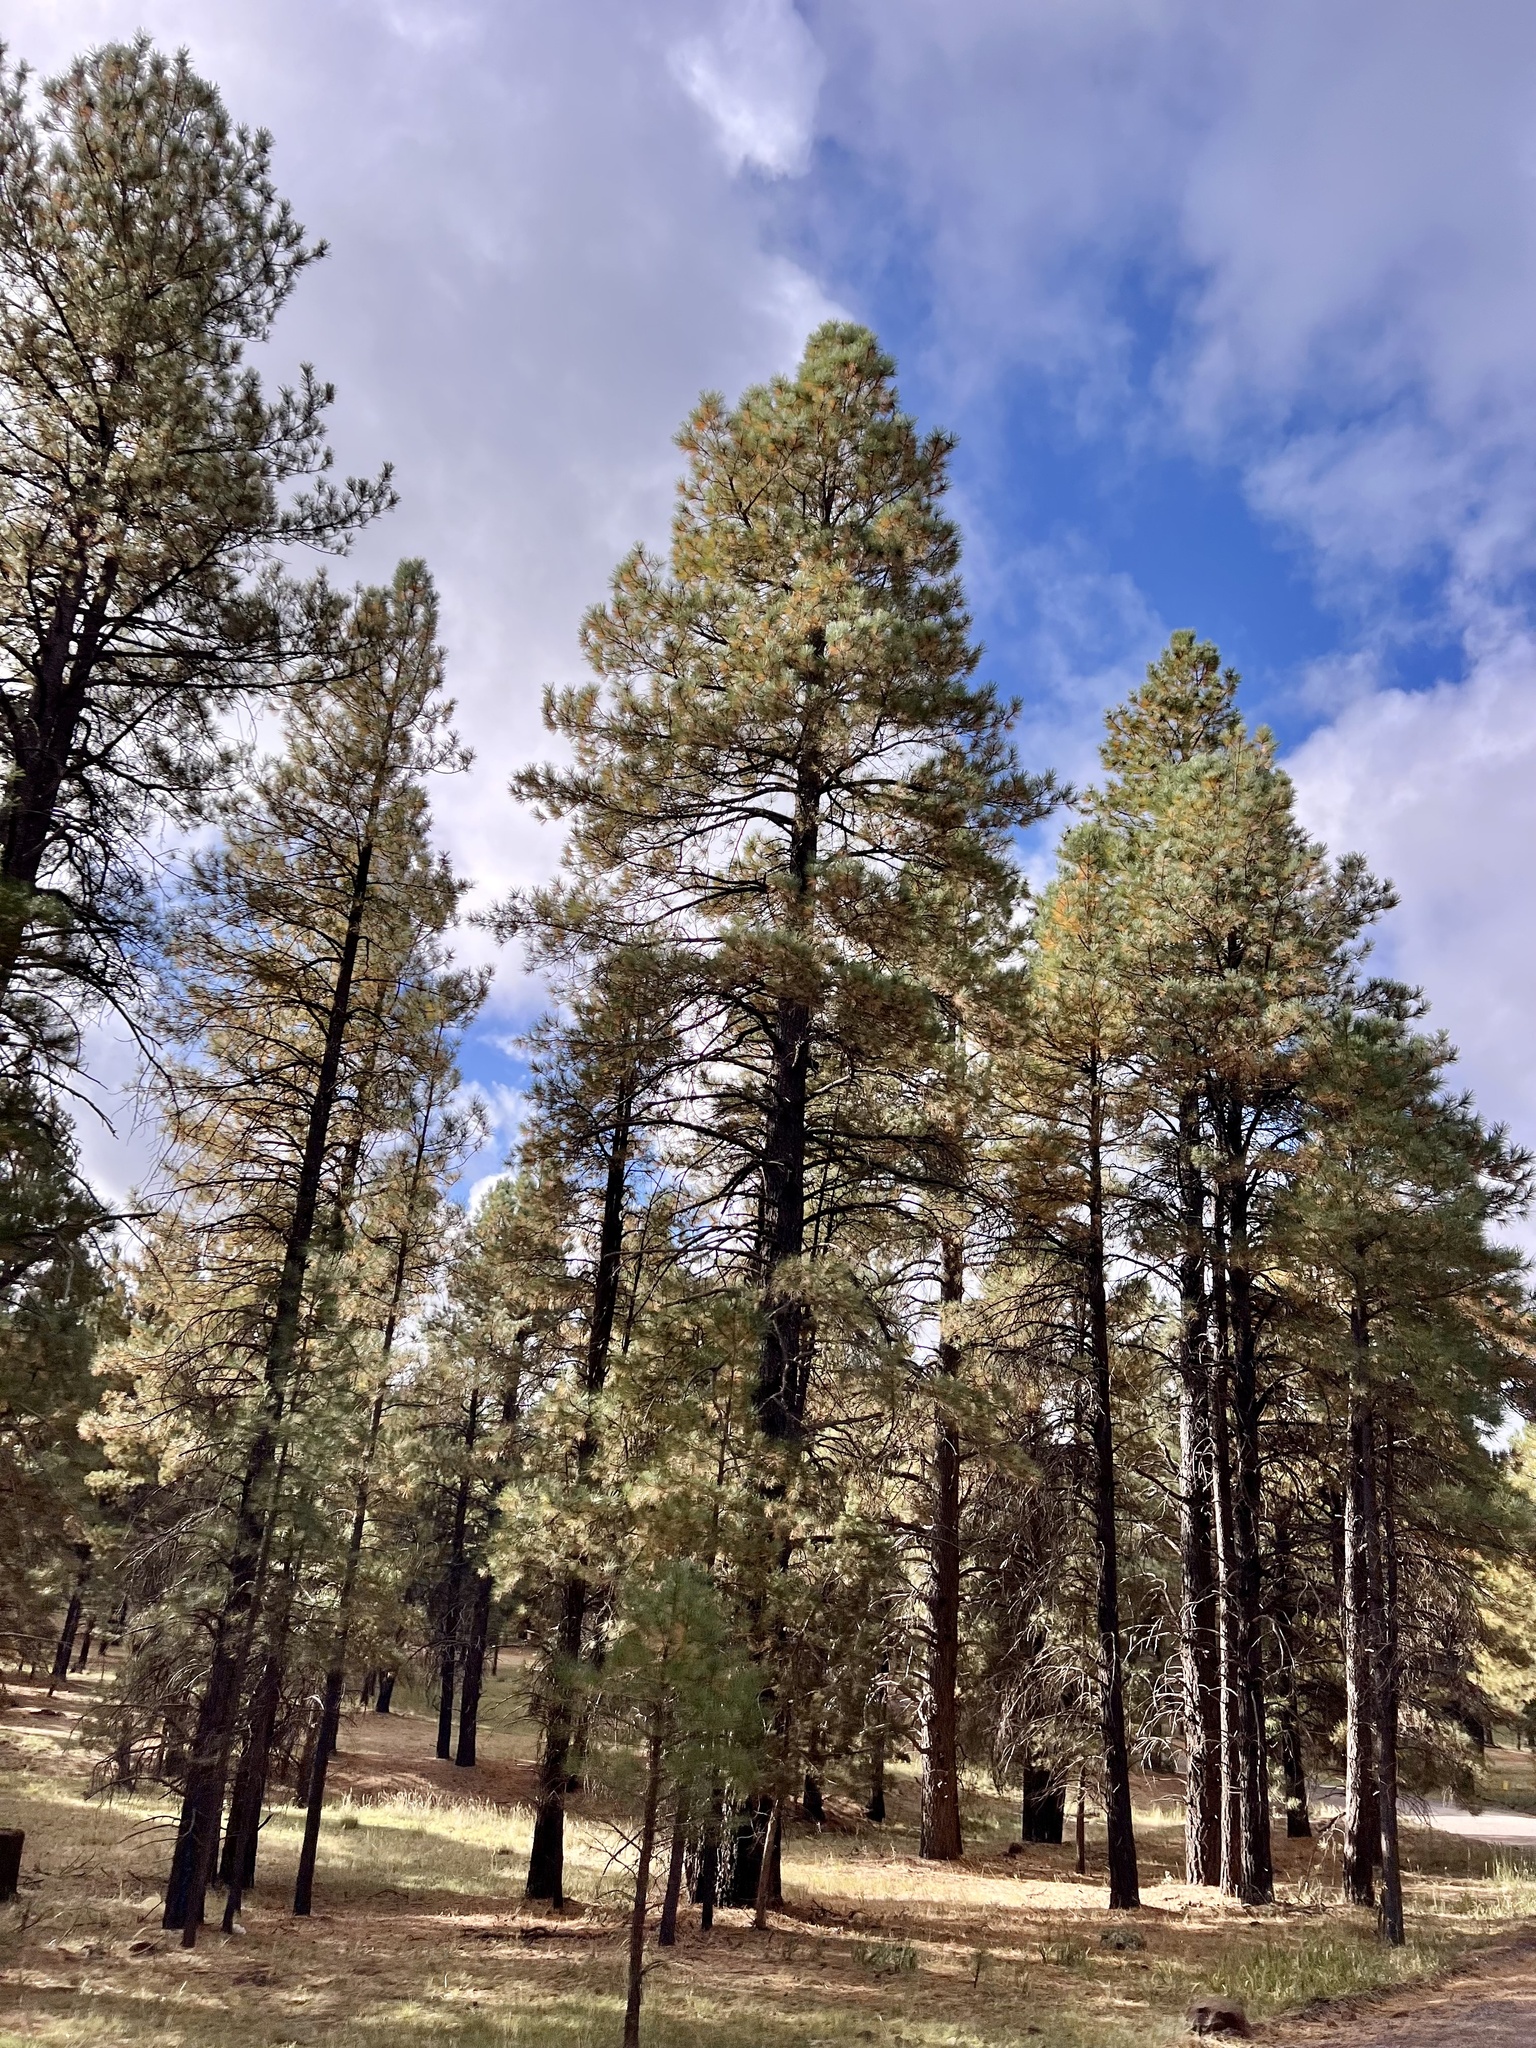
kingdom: Plantae
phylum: Tracheophyta
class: Pinopsida
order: Pinales
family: Pinaceae
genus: Pinus
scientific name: Pinus ponderosa
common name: Western yellow-pine
